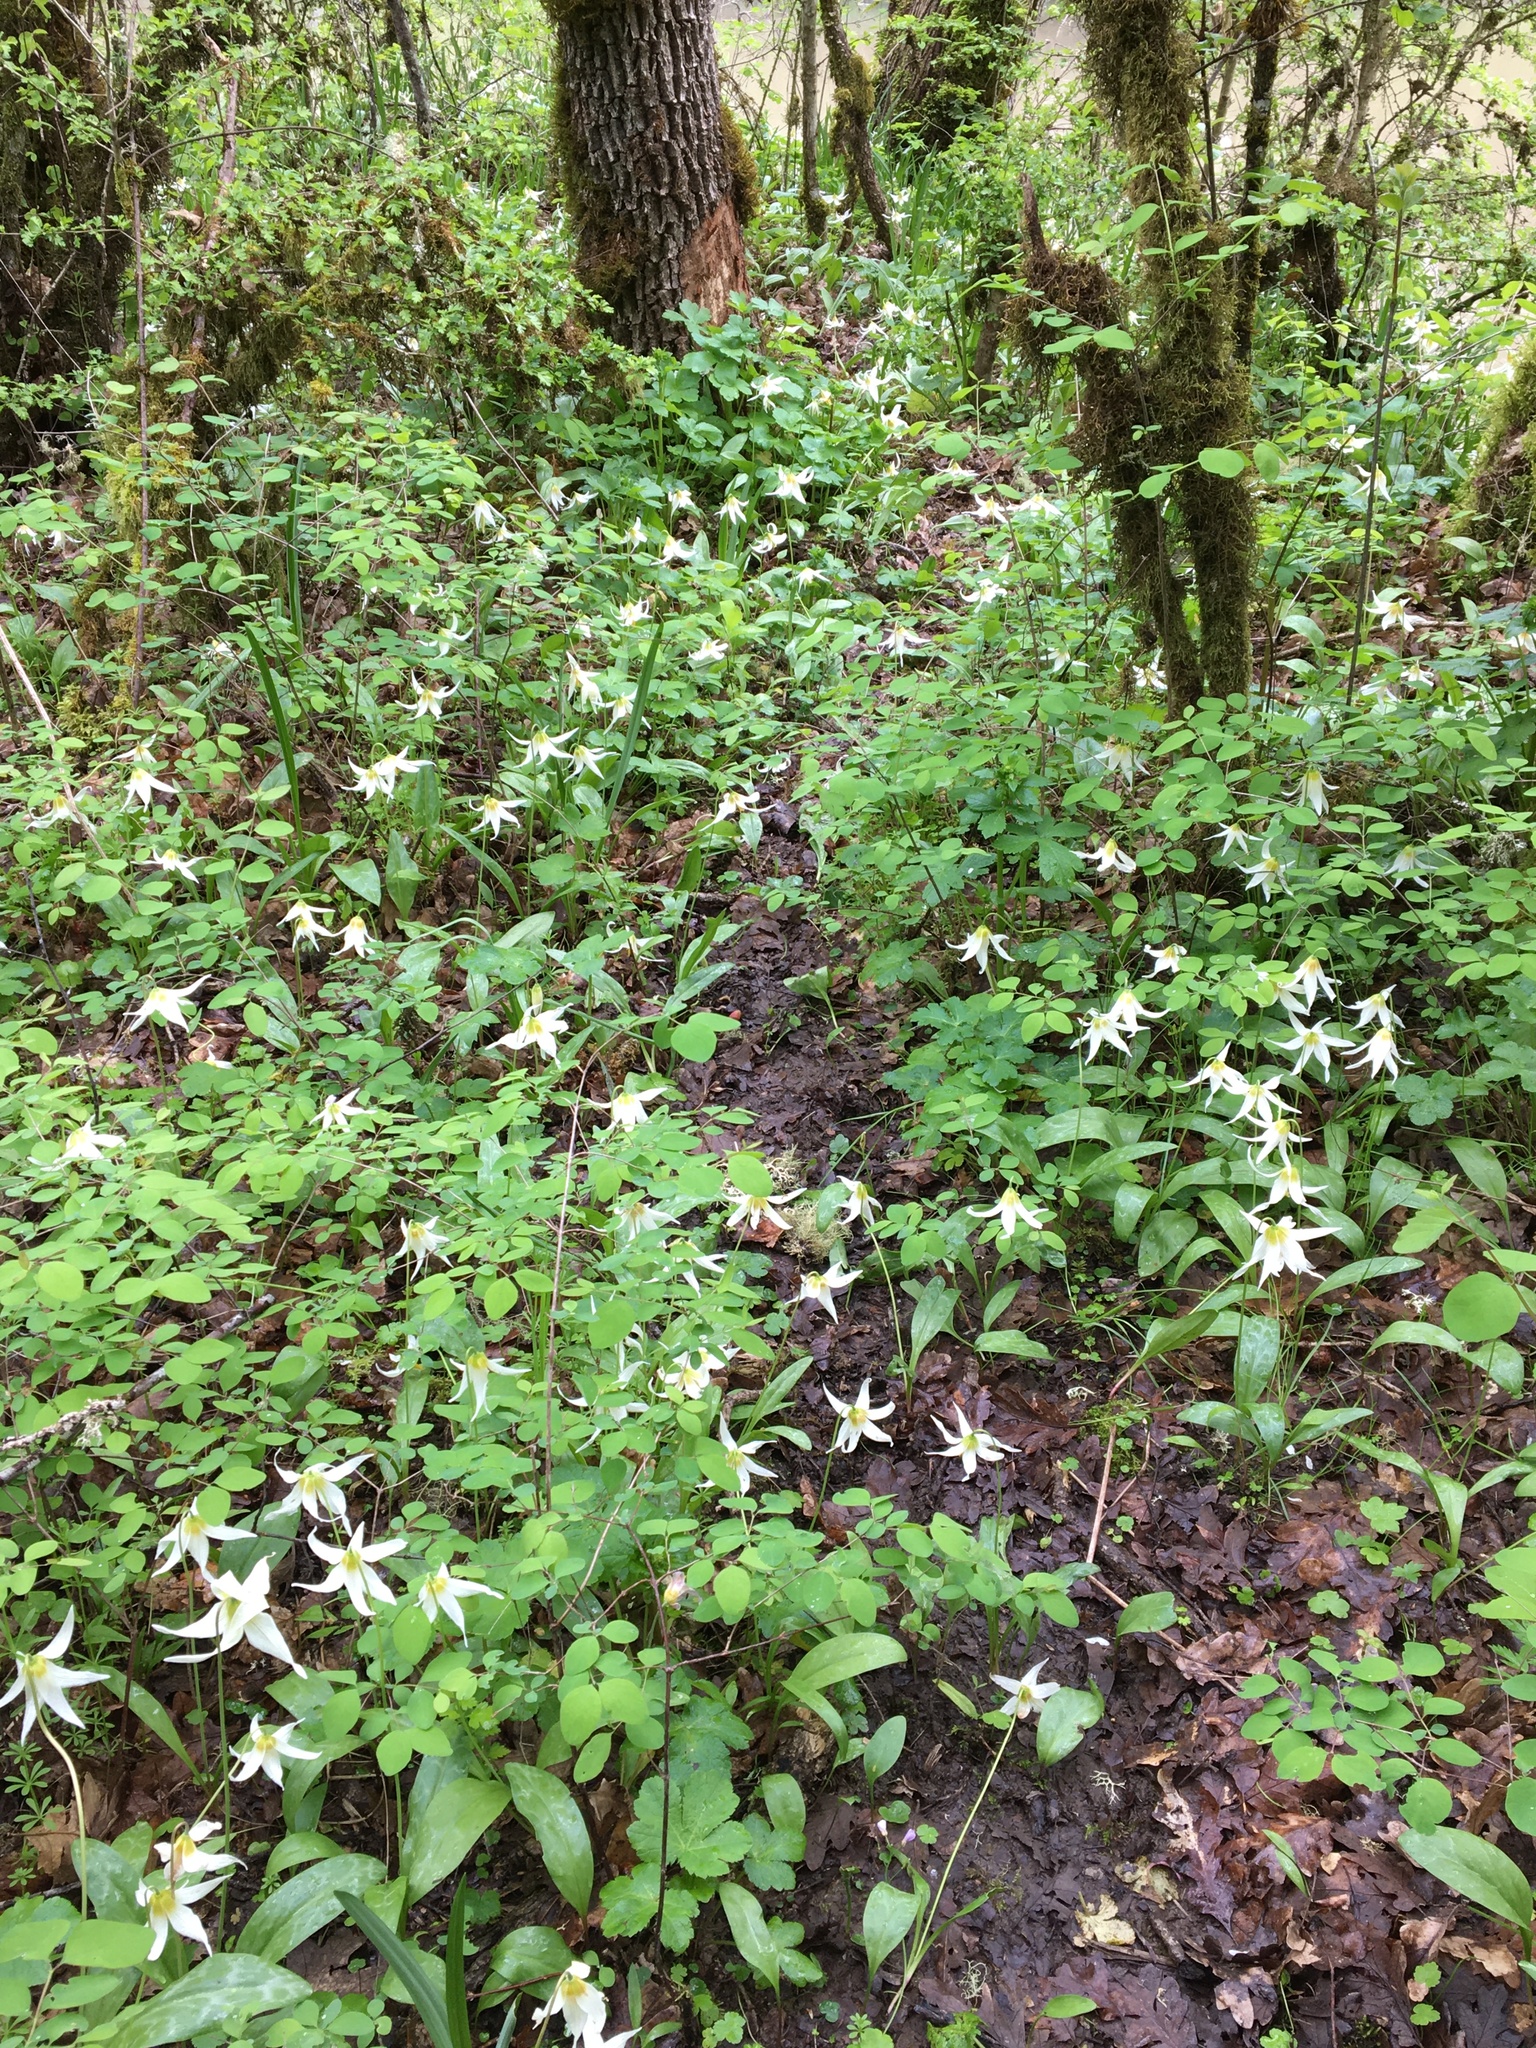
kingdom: Plantae
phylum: Tracheophyta
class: Liliopsida
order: Liliales
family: Liliaceae
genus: Erythronium
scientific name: Erythronium oregonum
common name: Giant adder's-tongue
